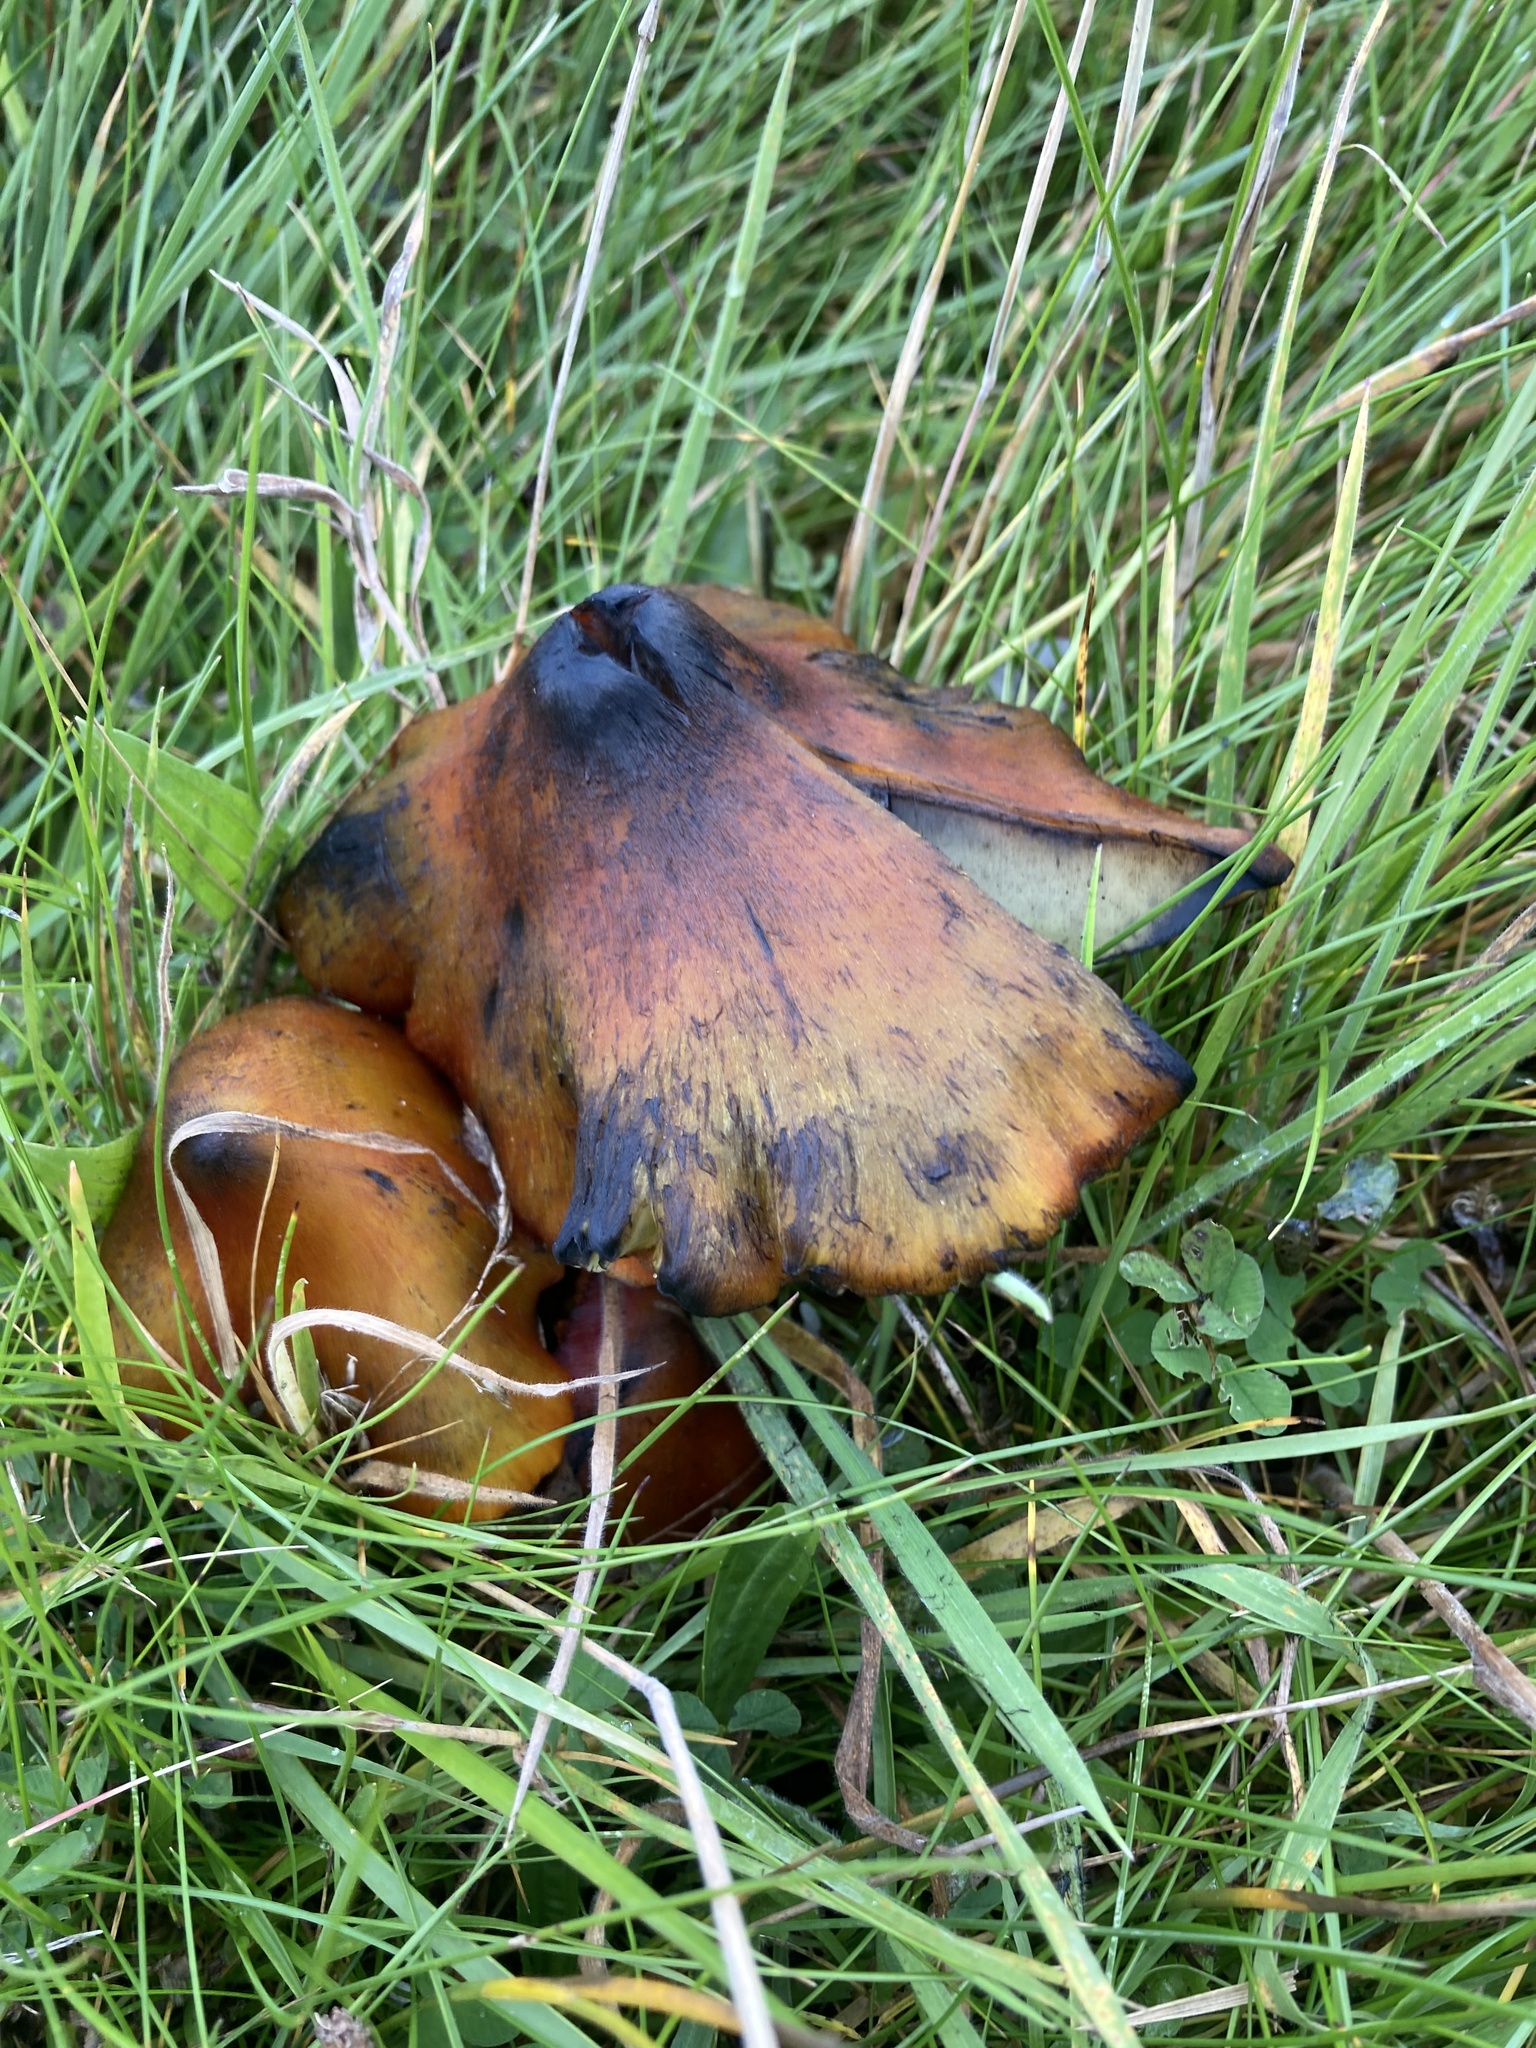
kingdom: Fungi
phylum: Basidiomycota
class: Agaricomycetes
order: Agaricales
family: Hygrophoraceae
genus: Hygrocybe
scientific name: Hygrocybe conica
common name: Blackening wax-cap
